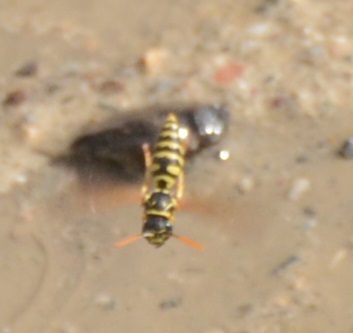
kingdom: Animalia
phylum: Arthropoda
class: Insecta
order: Hymenoptera
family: Eumenidae
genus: Polistes
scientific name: Polistes dominula
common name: Paper wasp
